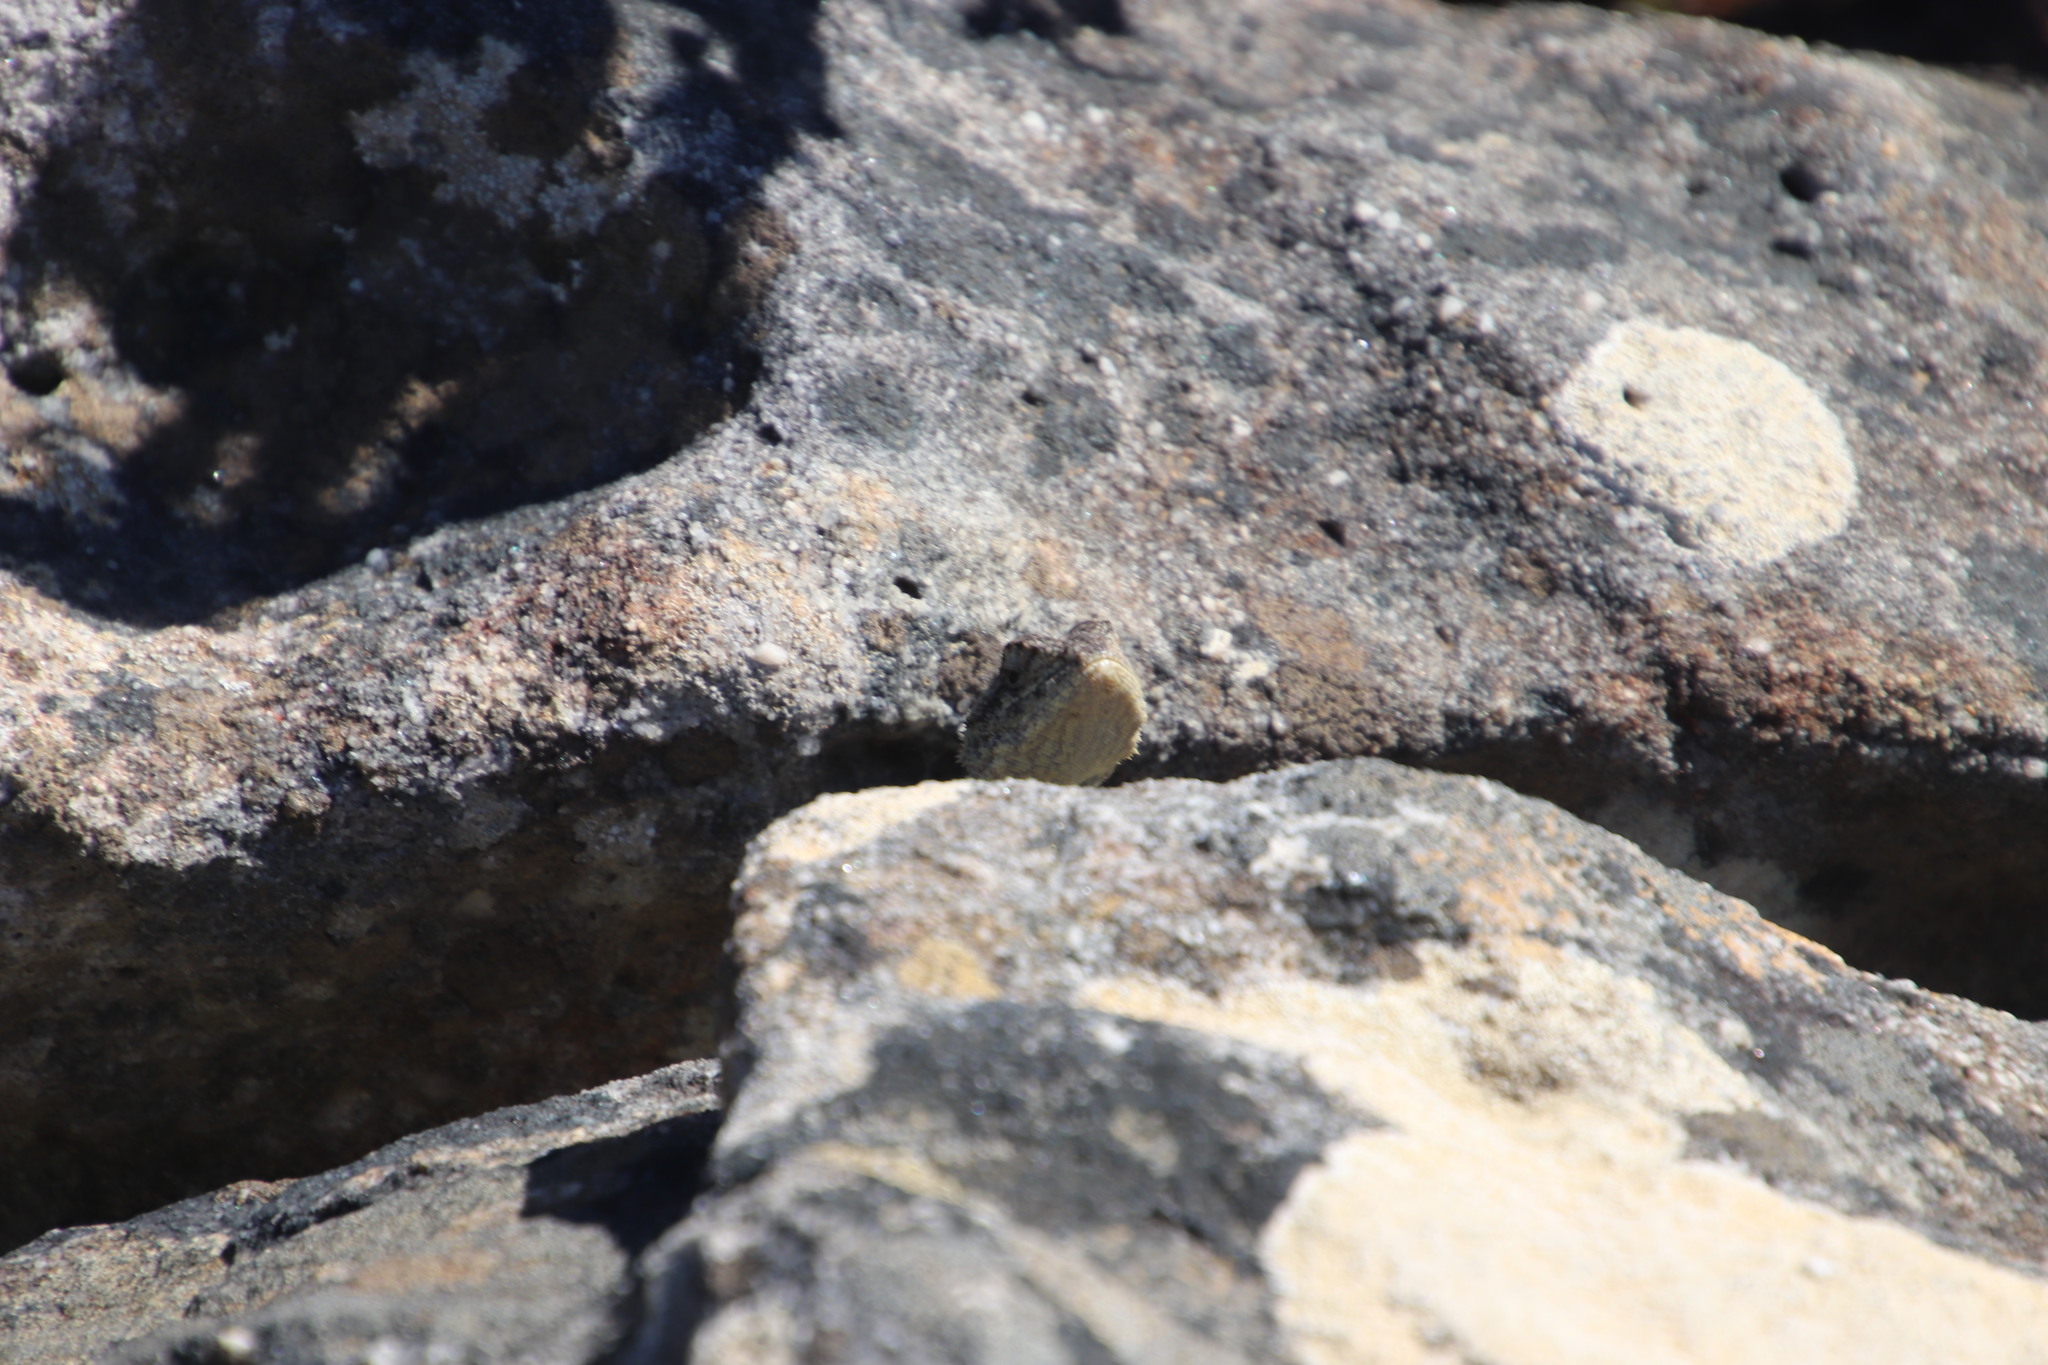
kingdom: Animalia
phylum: Chordata
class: Squamata
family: Agamidae
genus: Agama
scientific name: Agama atra
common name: Southern african rock agama
